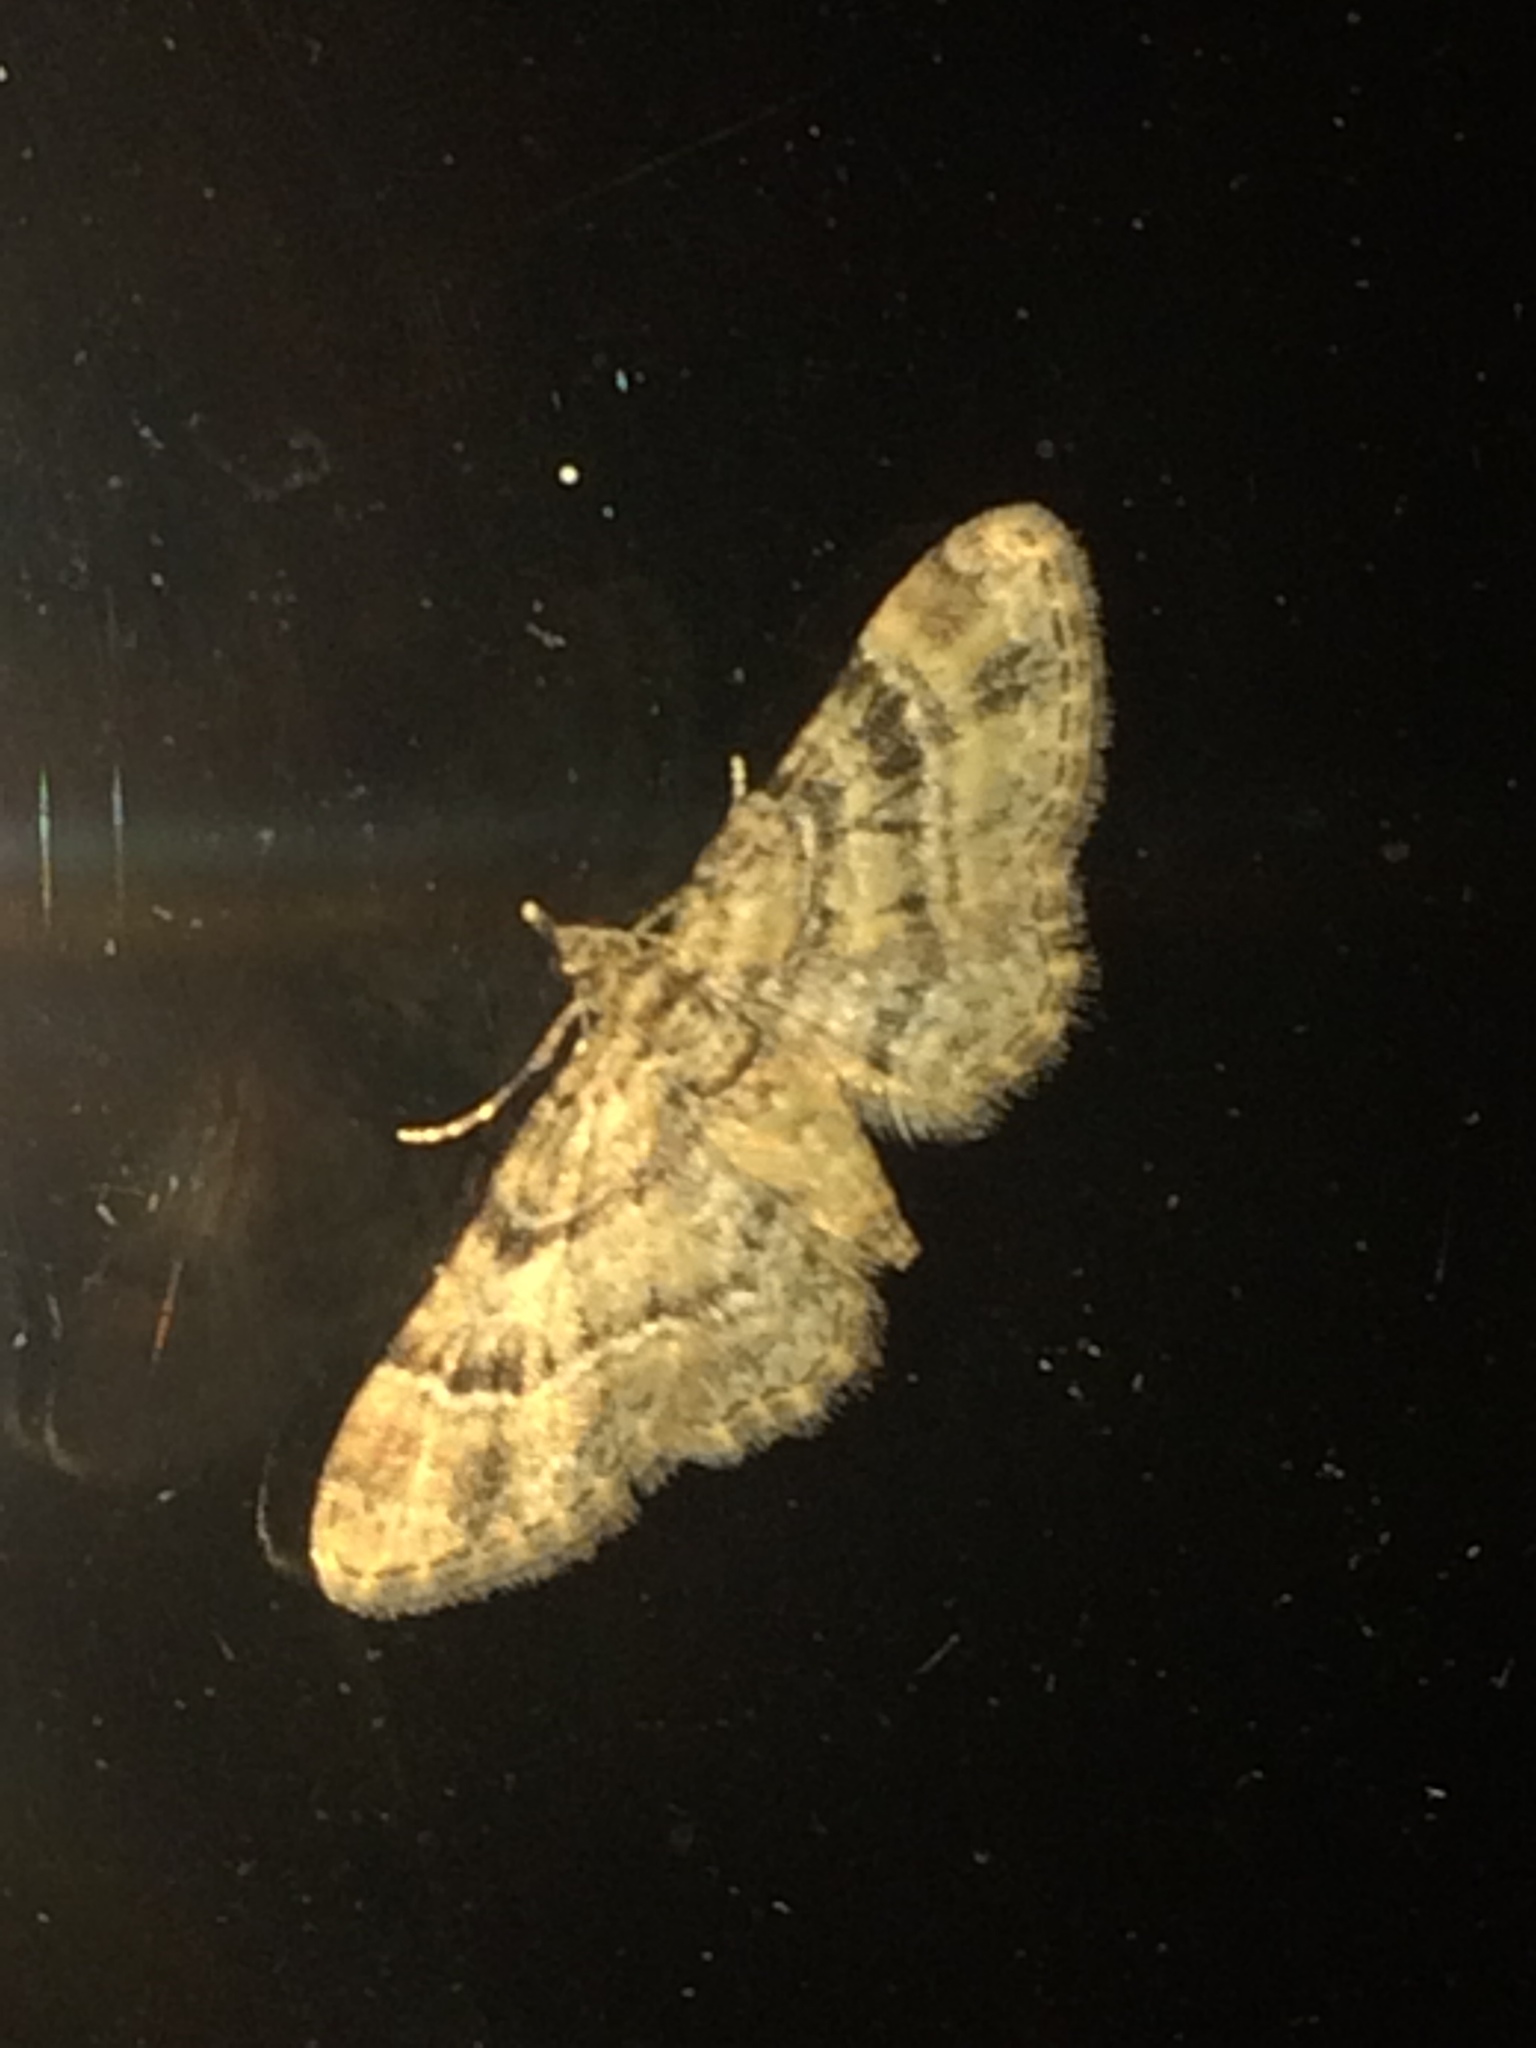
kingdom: Animalia
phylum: Arthropoda
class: Insecta
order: Lepidoptera
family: Geometridae
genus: Gymnoscelis
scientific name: Gymnoscelis rufifasciata
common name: Double-striped pug
